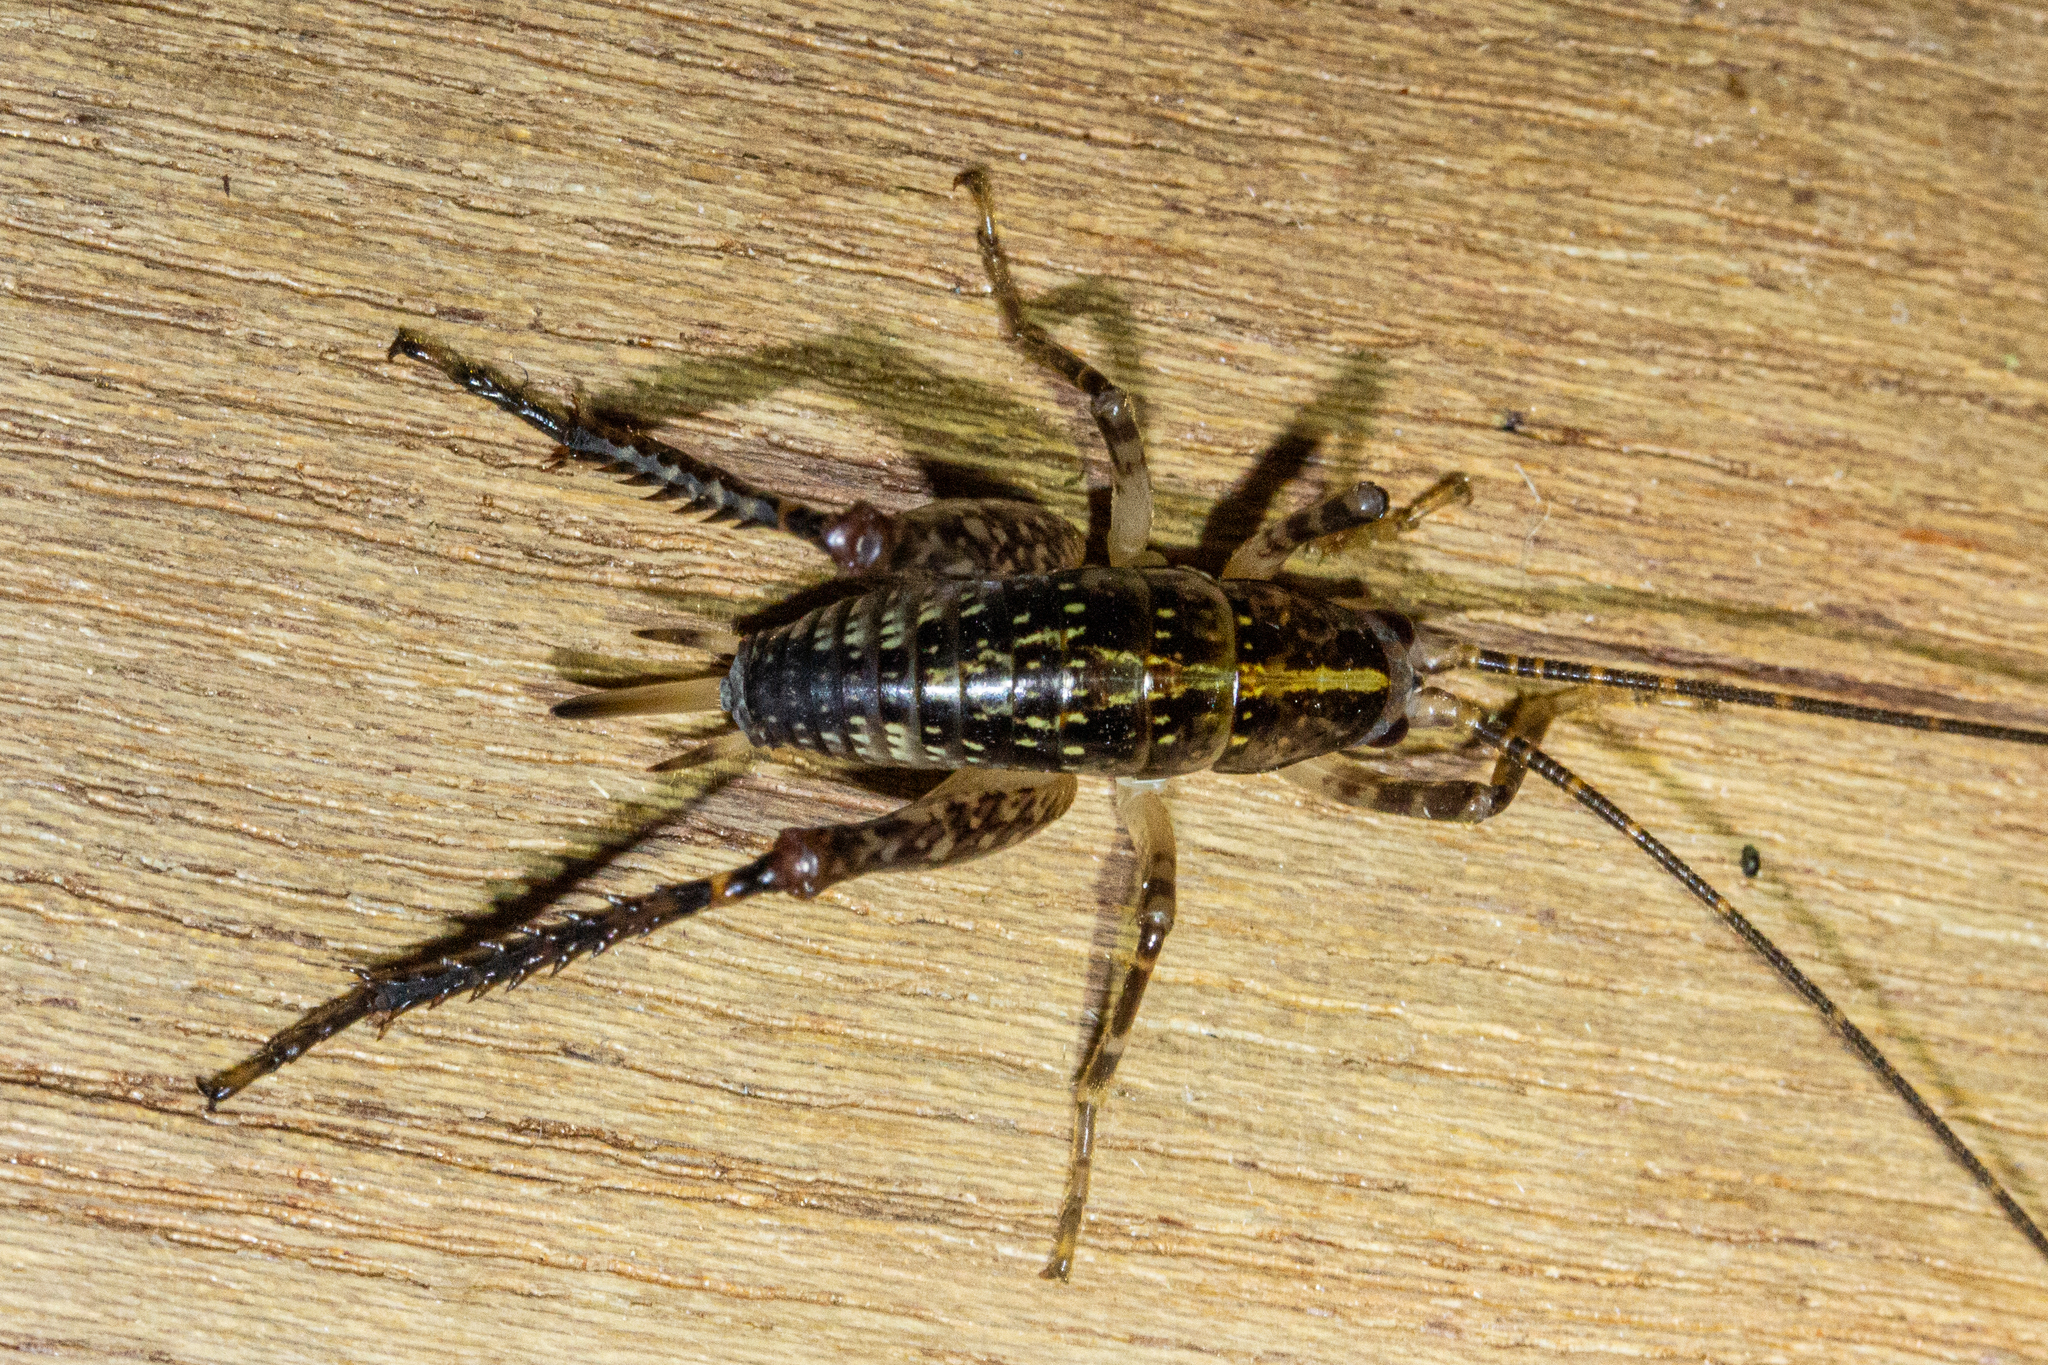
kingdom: Animalia
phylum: Arthropoda
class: Insecta
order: Orthoptera
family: Rhaphidophoridae
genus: Talitropsis
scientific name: Talitropsis sedilloti
